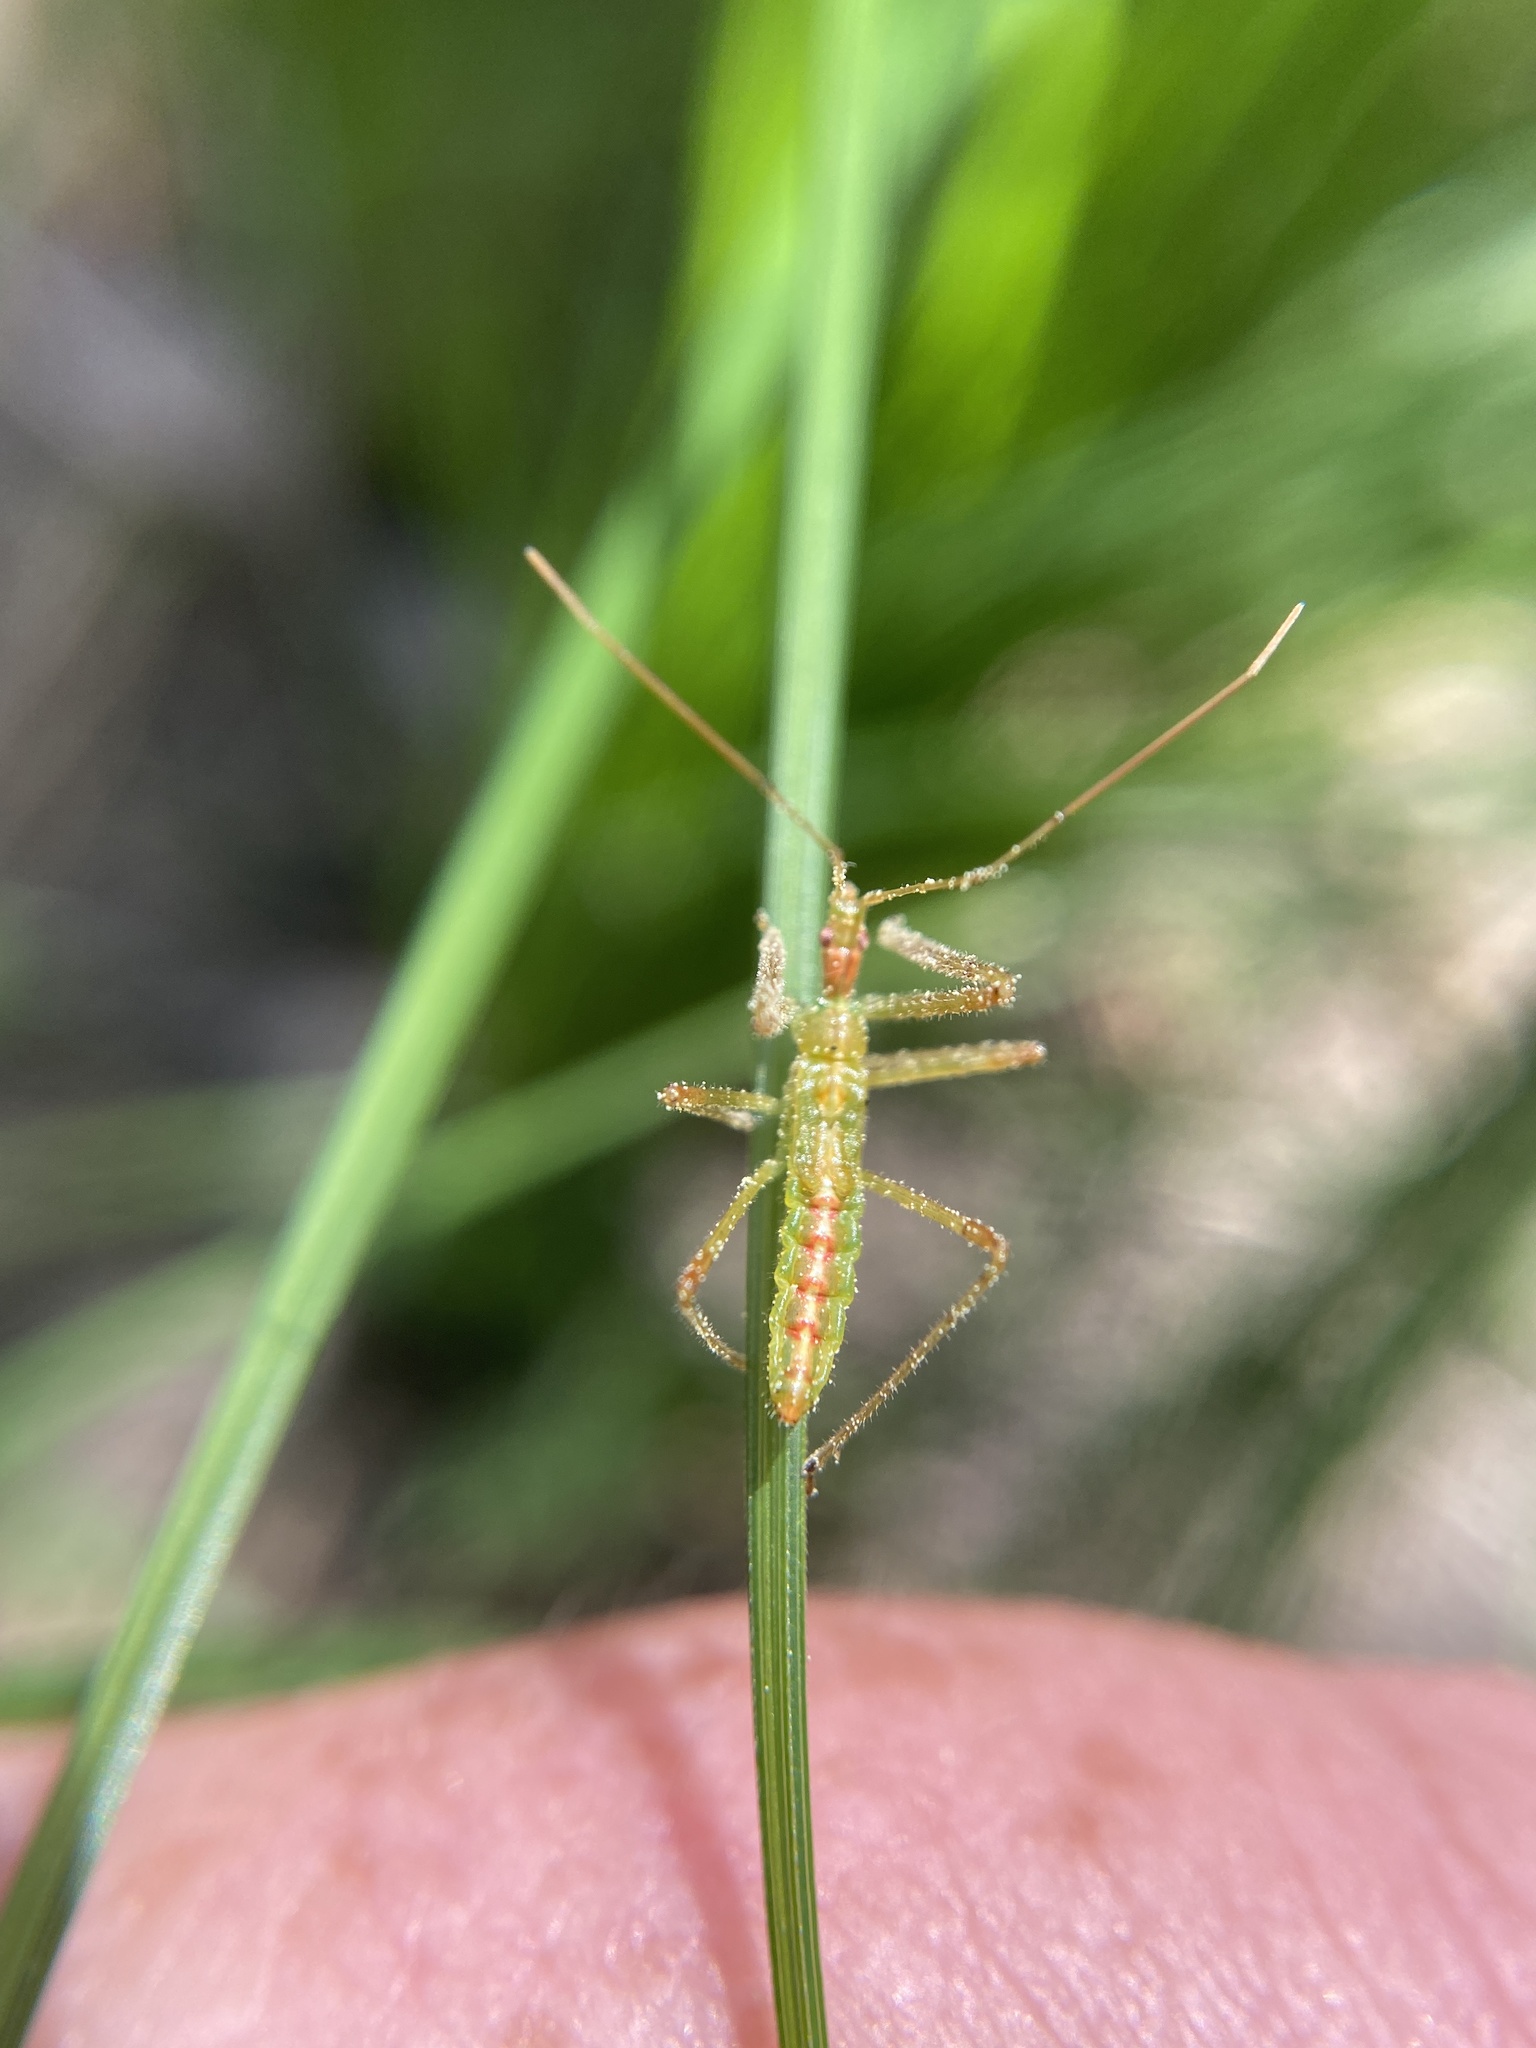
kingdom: Animalia
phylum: Arthropoda
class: Insecta
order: Hemiptera
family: Reduviidae
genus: Zelus
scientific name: Zelus luridus
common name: Pale green assassin bug
